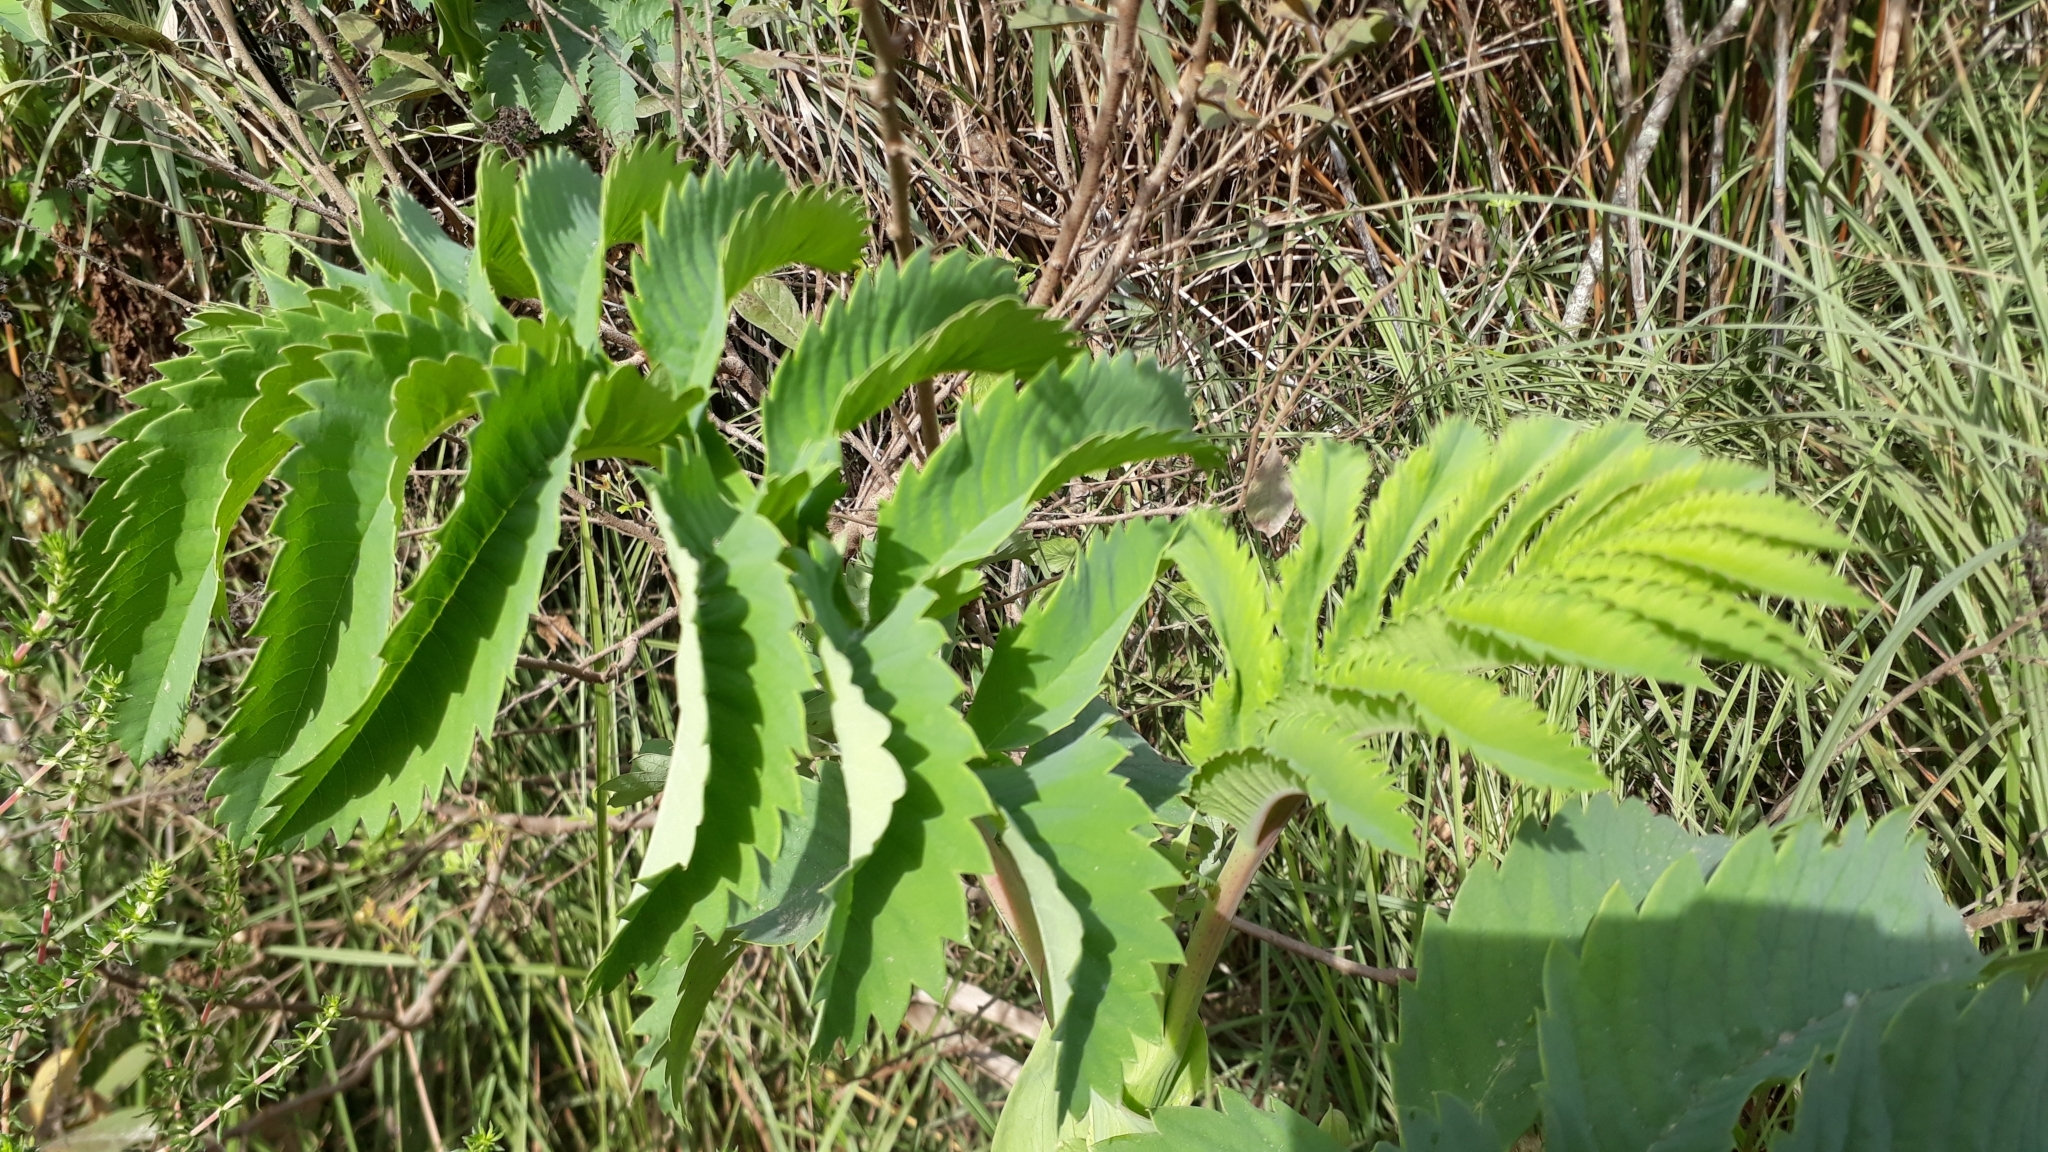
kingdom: Plantae
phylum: Tracheophyta
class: Magnoliopsida
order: Geraniales
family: Melianthaceae
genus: Melianthus
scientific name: Melianthus major
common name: Honey-flower
